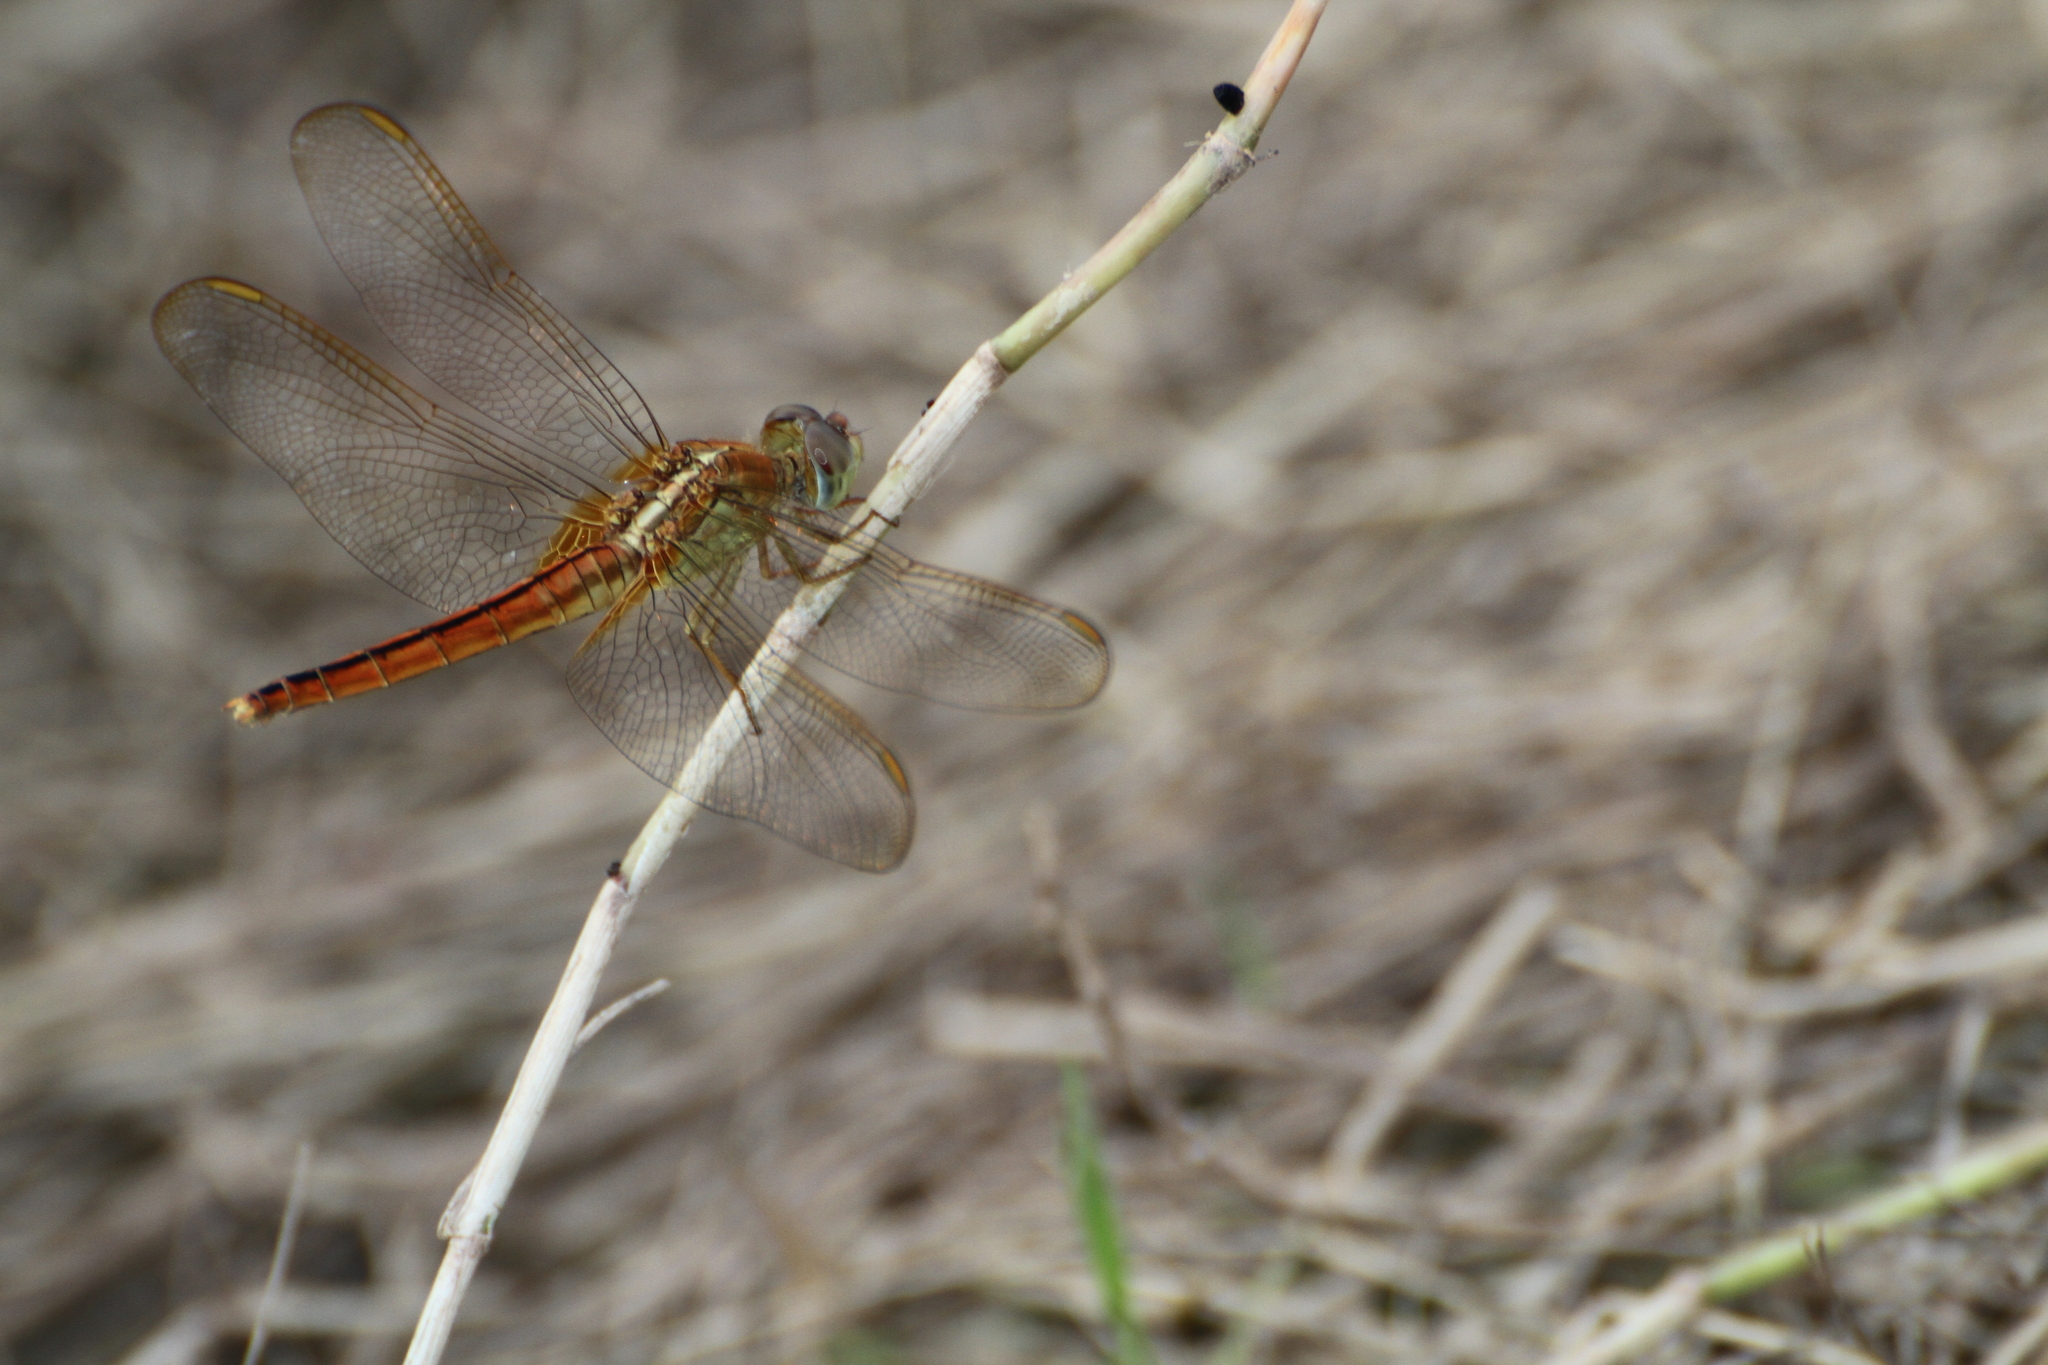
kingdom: Animalia
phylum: Arthropoda
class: Insecta
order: Odonata
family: Libellulidae
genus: Crocothemis
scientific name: Crocothemis servilia
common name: Scarlet skimmer
